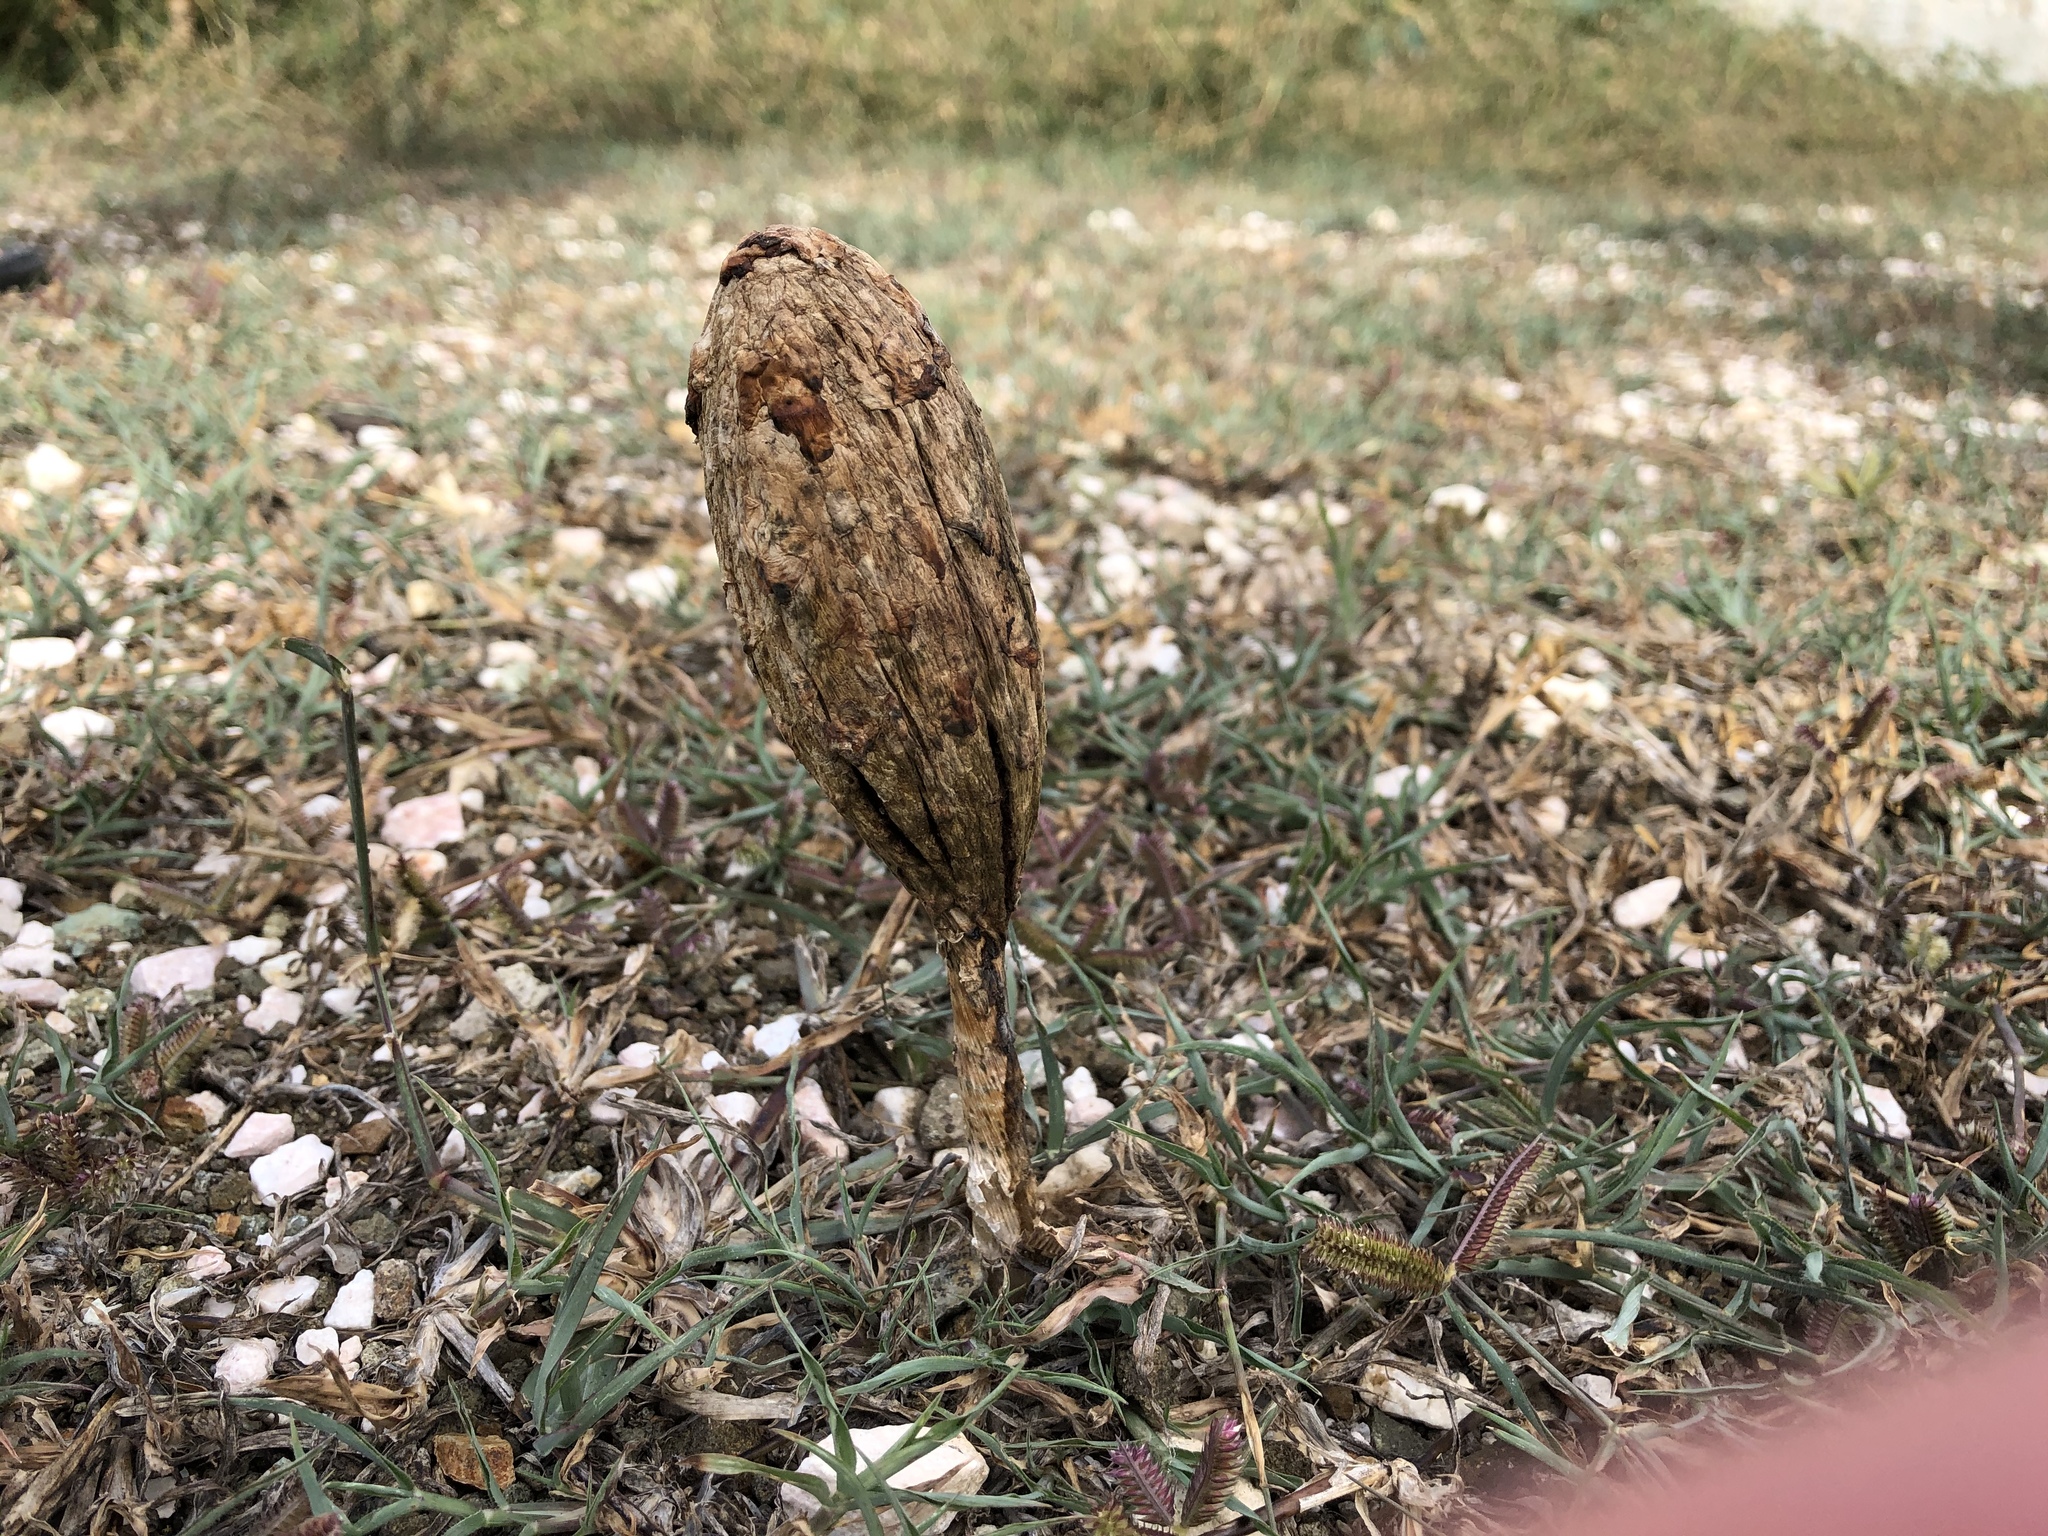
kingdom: Fungi
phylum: Basidiomycota
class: Agaricomycetes
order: Agaricales
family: Agaricaceae
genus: Podaxis
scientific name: Podaxis pistillaris
